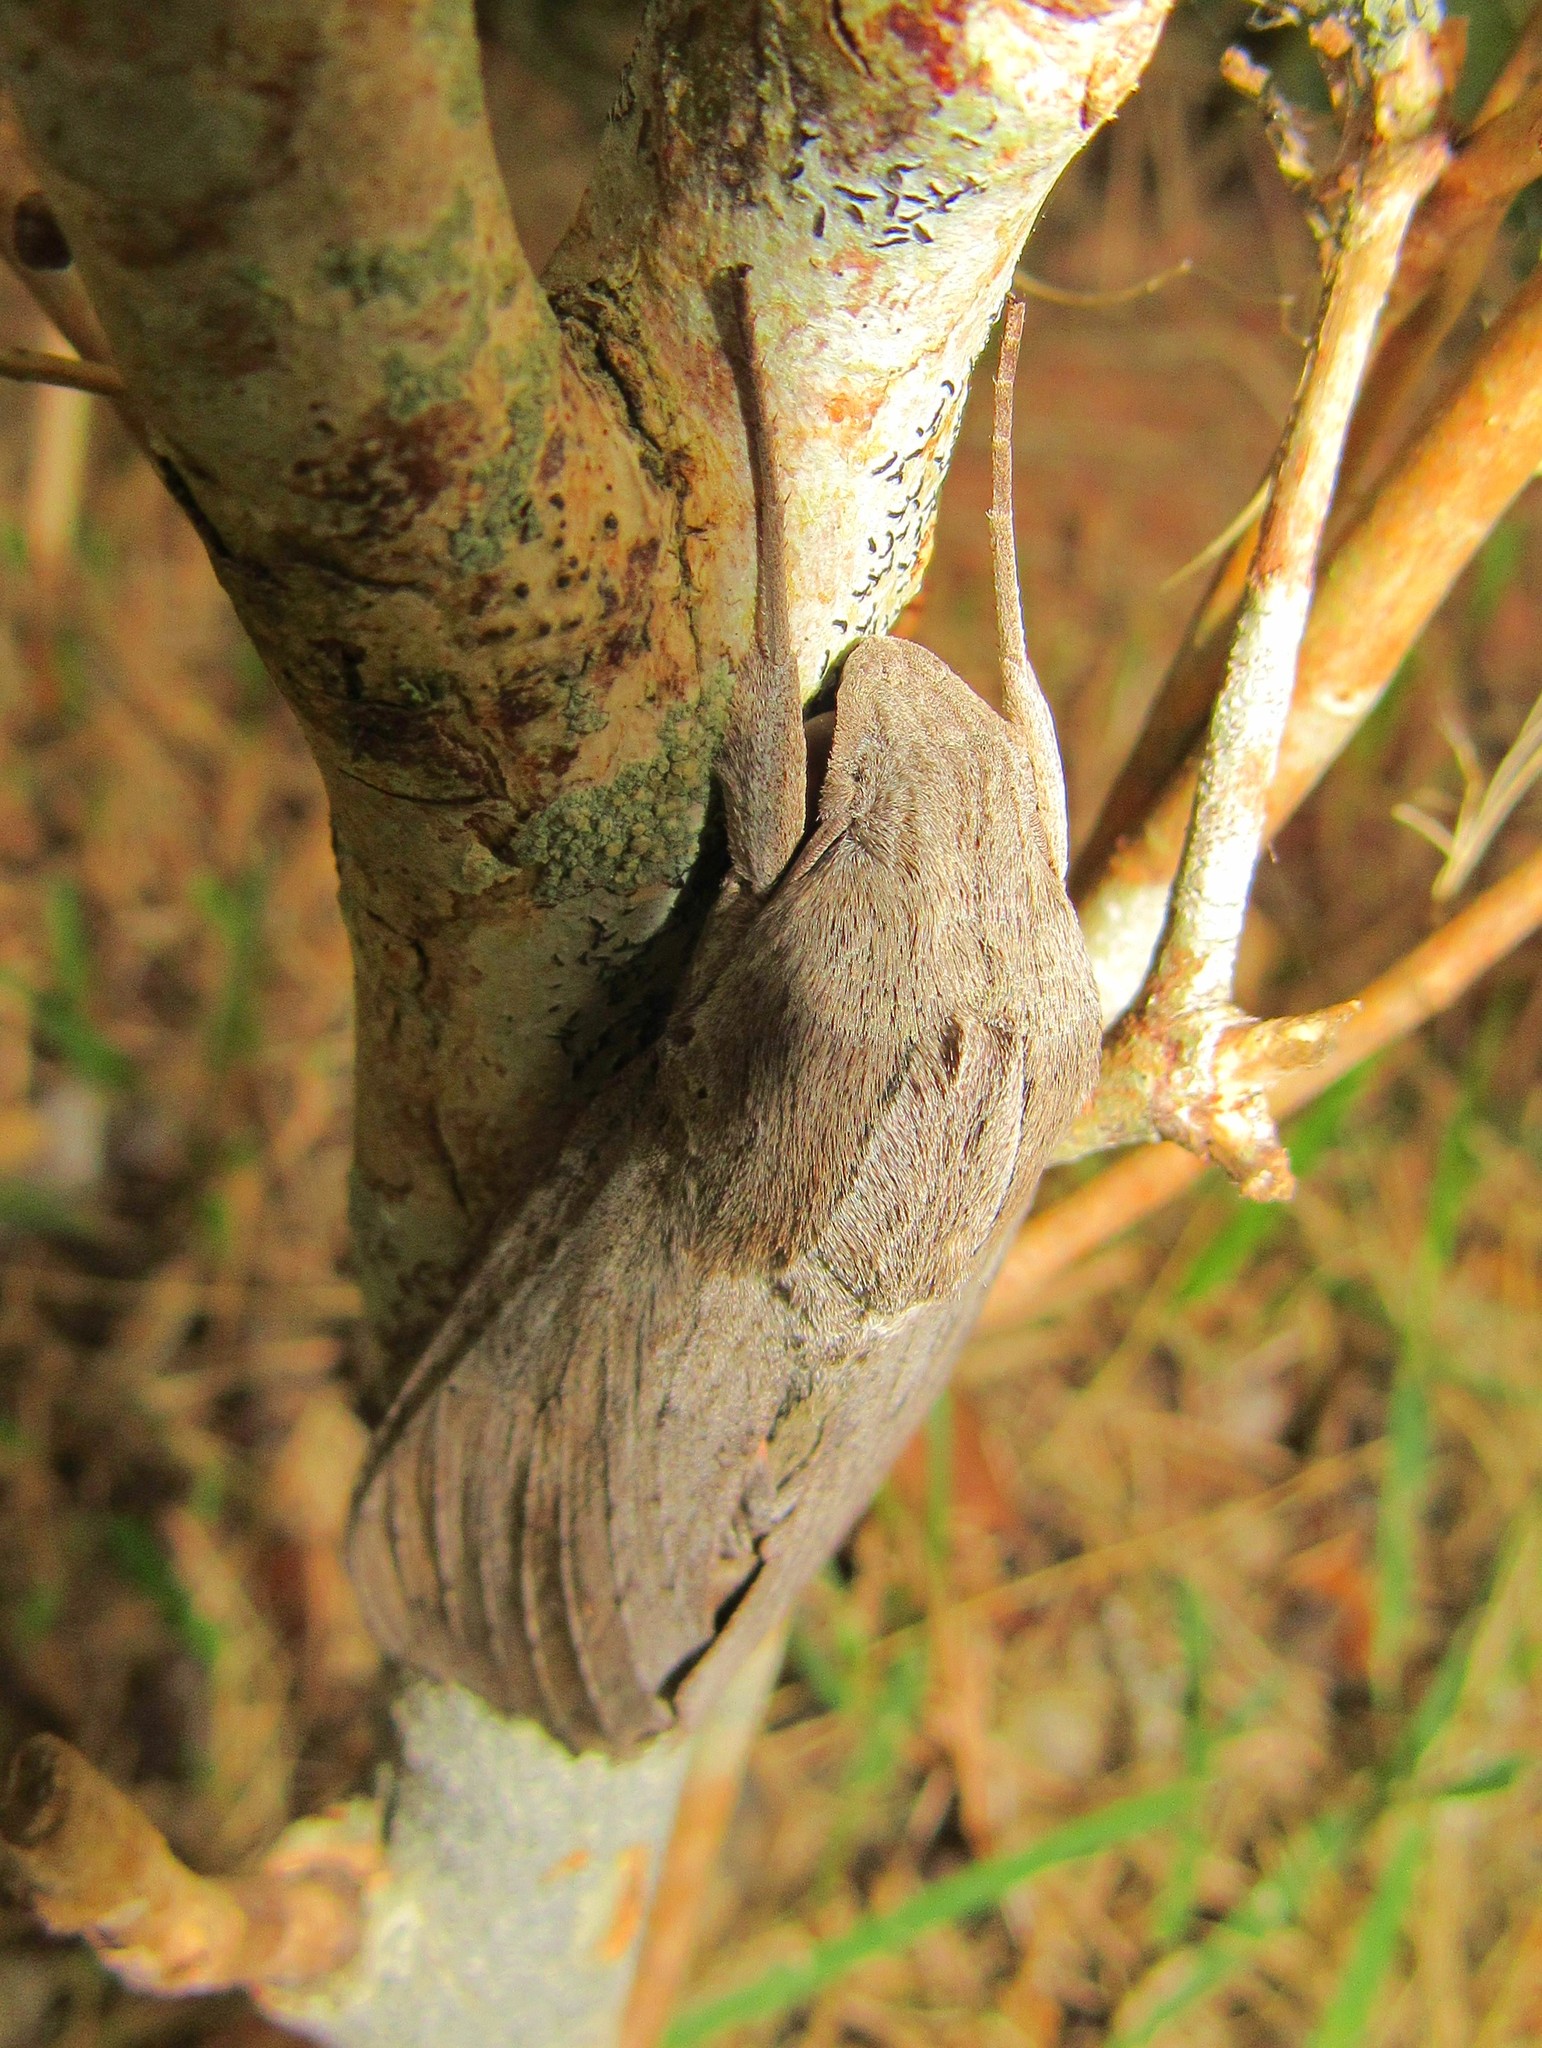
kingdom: Animalia
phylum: Arthropoda
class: Insecta
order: Lepidoptera
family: Sphingidae
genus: Erinnyis
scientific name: Erinnyis ello
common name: Ello sphinx
